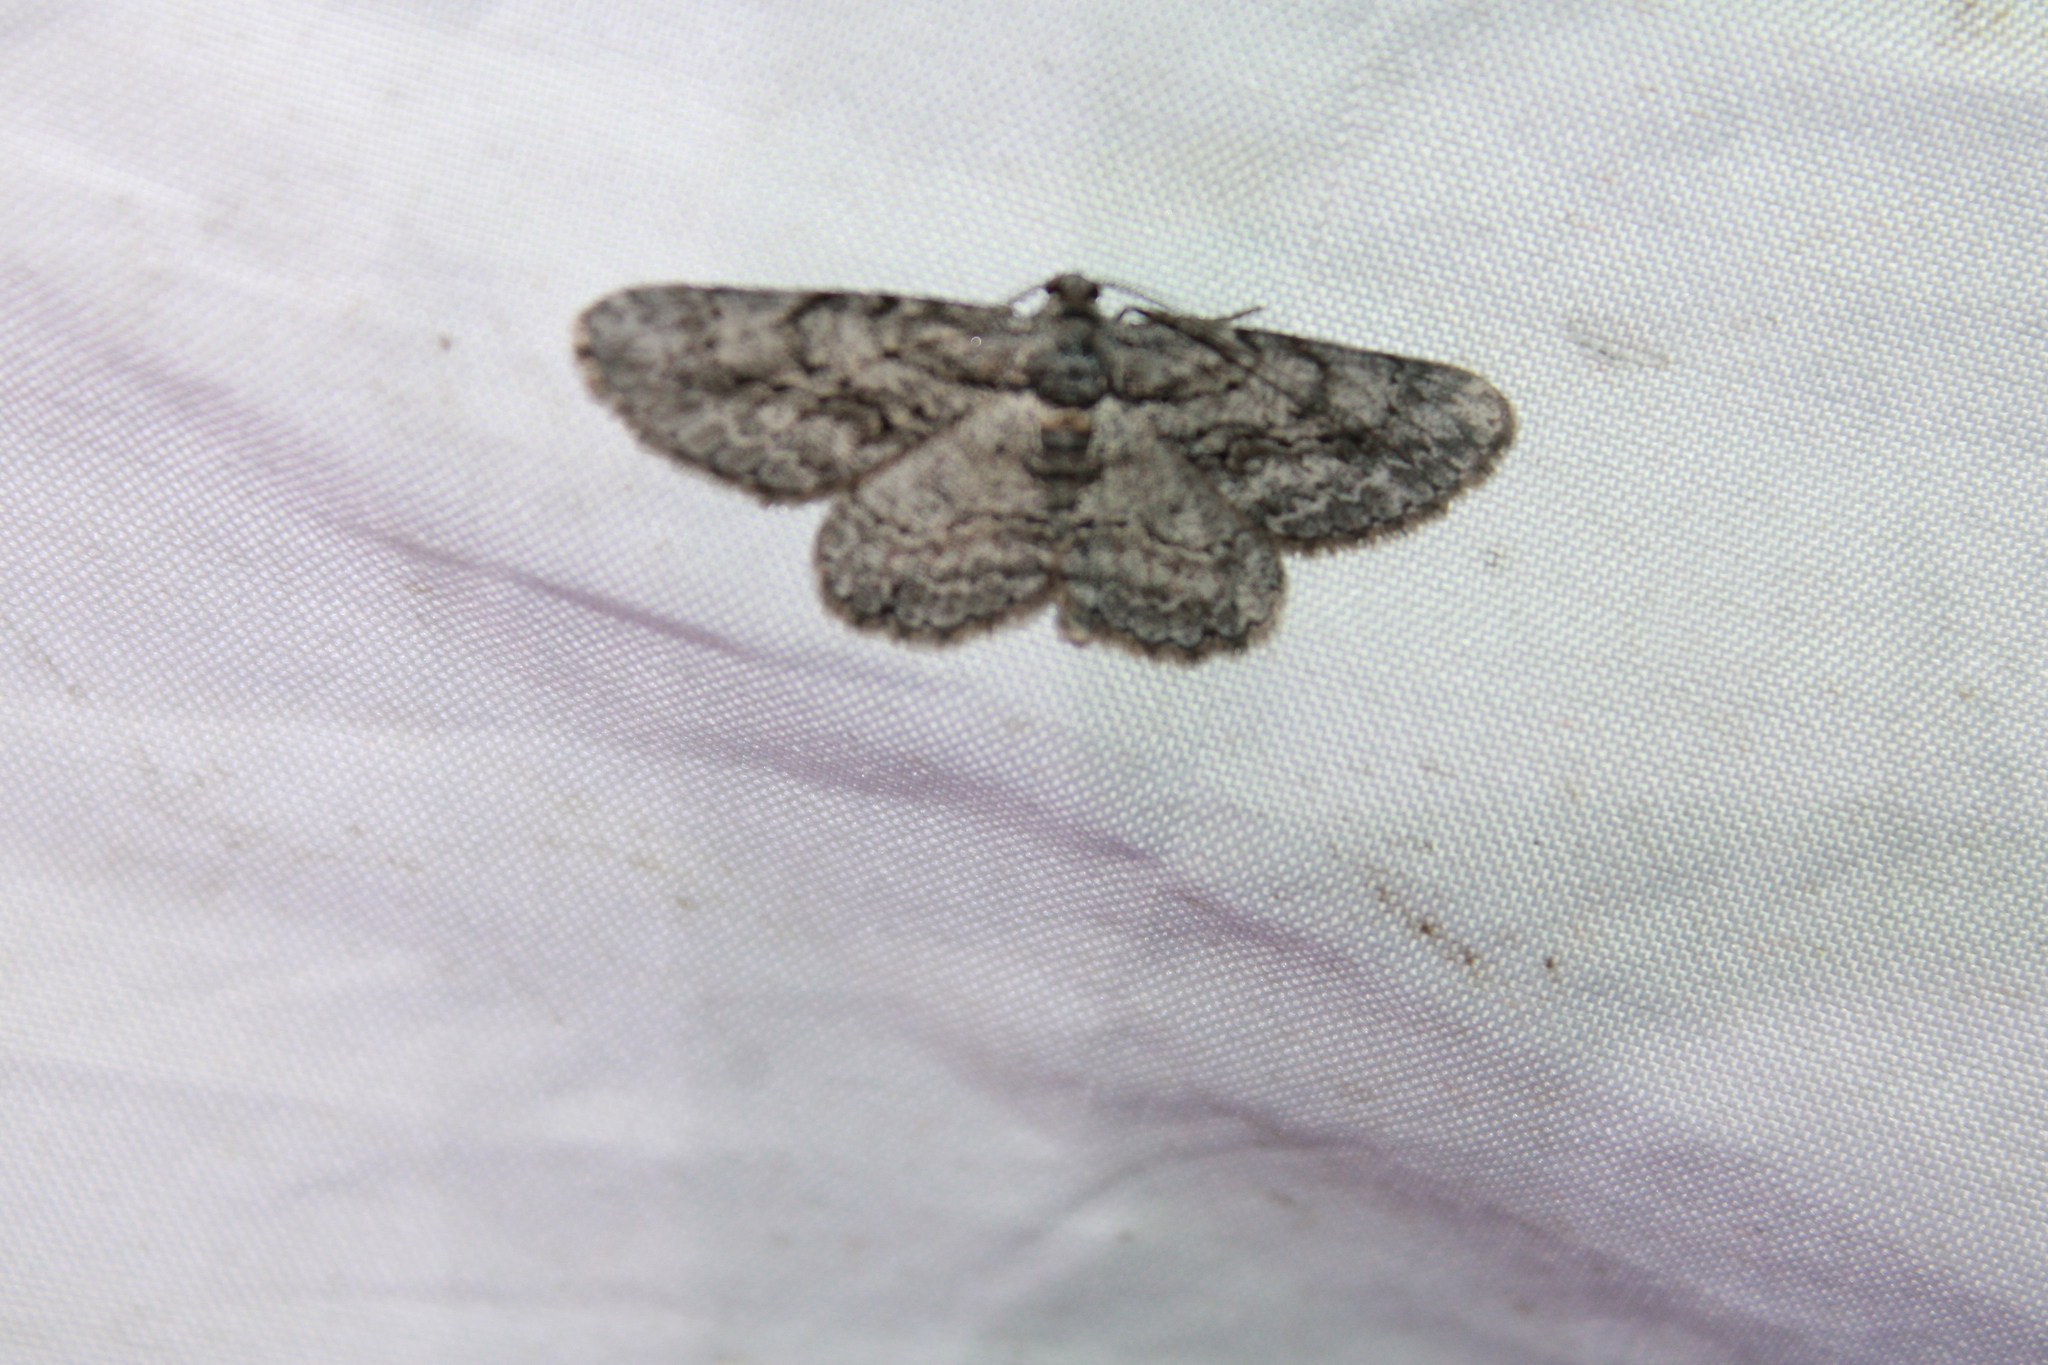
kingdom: Animalia
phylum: Arthropoda
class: Insecta
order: Lepidoptera
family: Geometridae
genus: Anavitrinella
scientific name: Anavitrinella pampinaria
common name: Common gray
